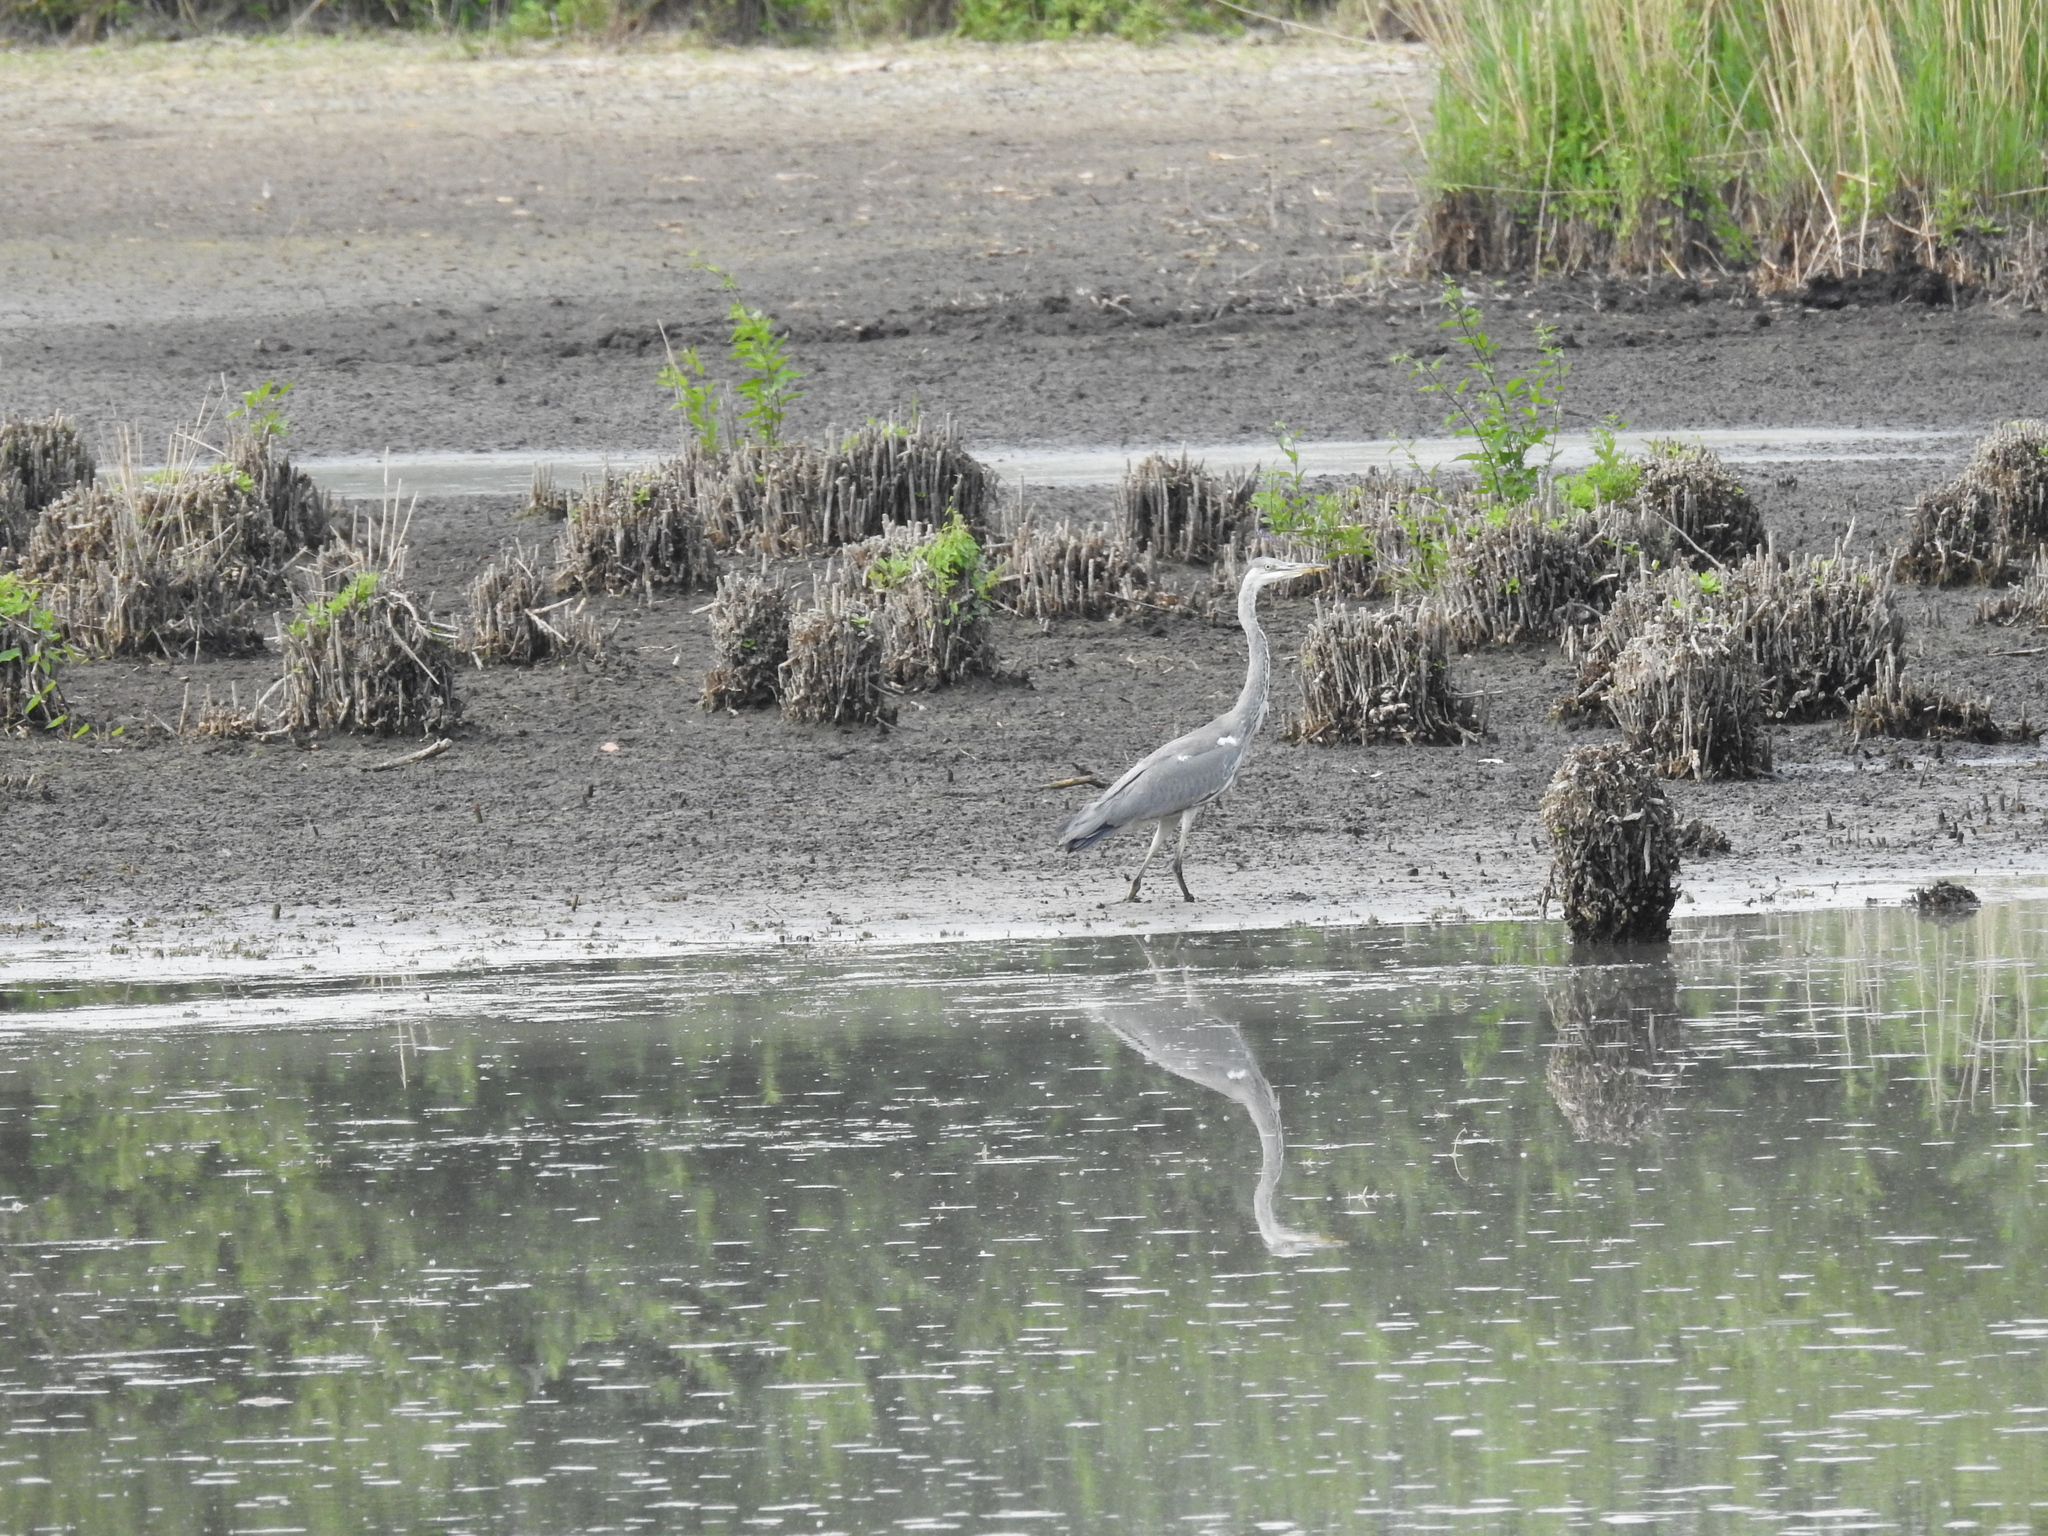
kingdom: Animalia
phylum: Chordata
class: Aves
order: Pelecaniformes
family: Ardeidae
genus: Ardea
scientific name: Ardea cinerea
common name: Grey heron
